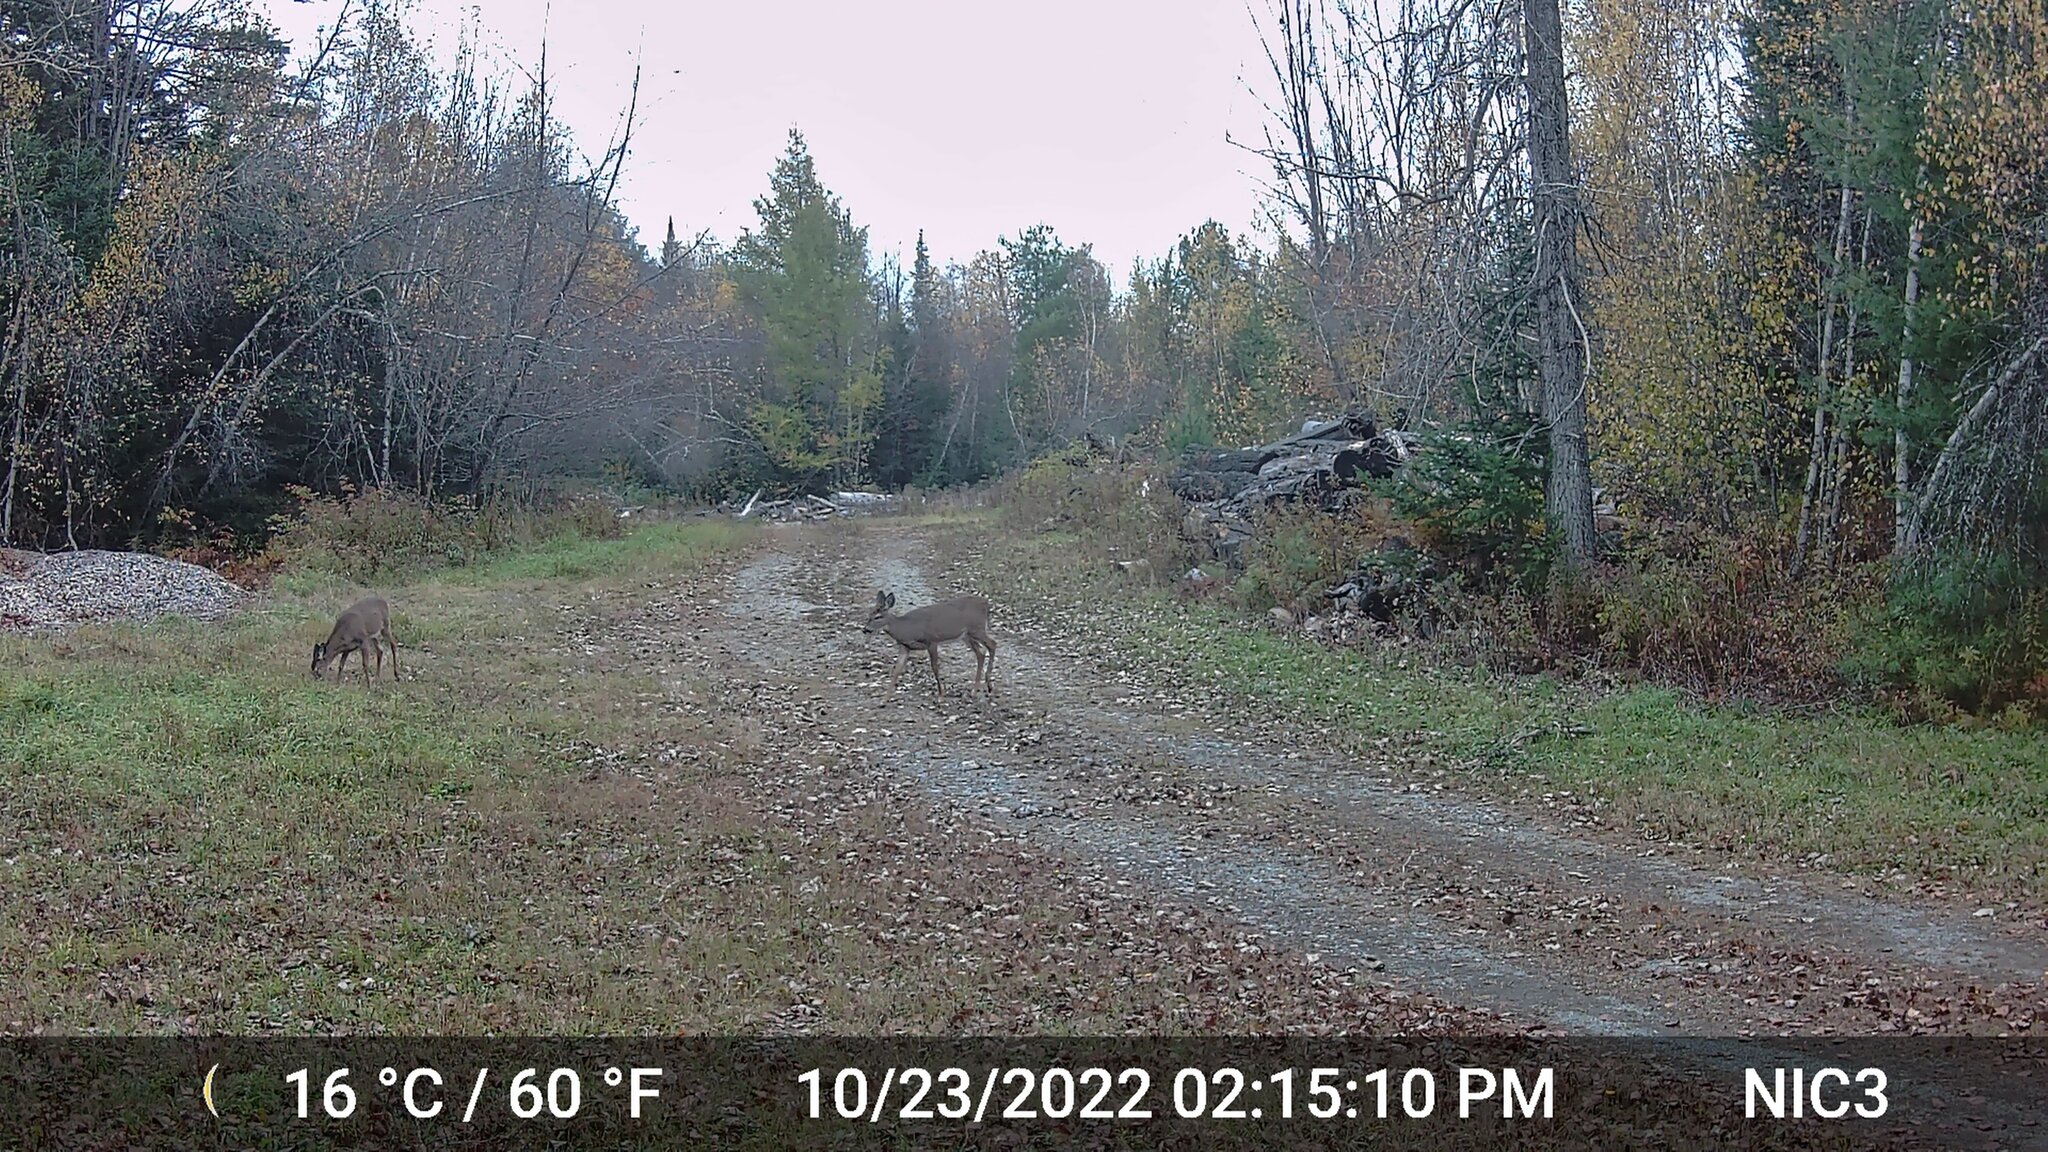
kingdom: Animalia
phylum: Chordata
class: Mammalia
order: Artiodactyla
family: Cervidae
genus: Odocoileus
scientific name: Odocoileus virginianus
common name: White-tailed deer
